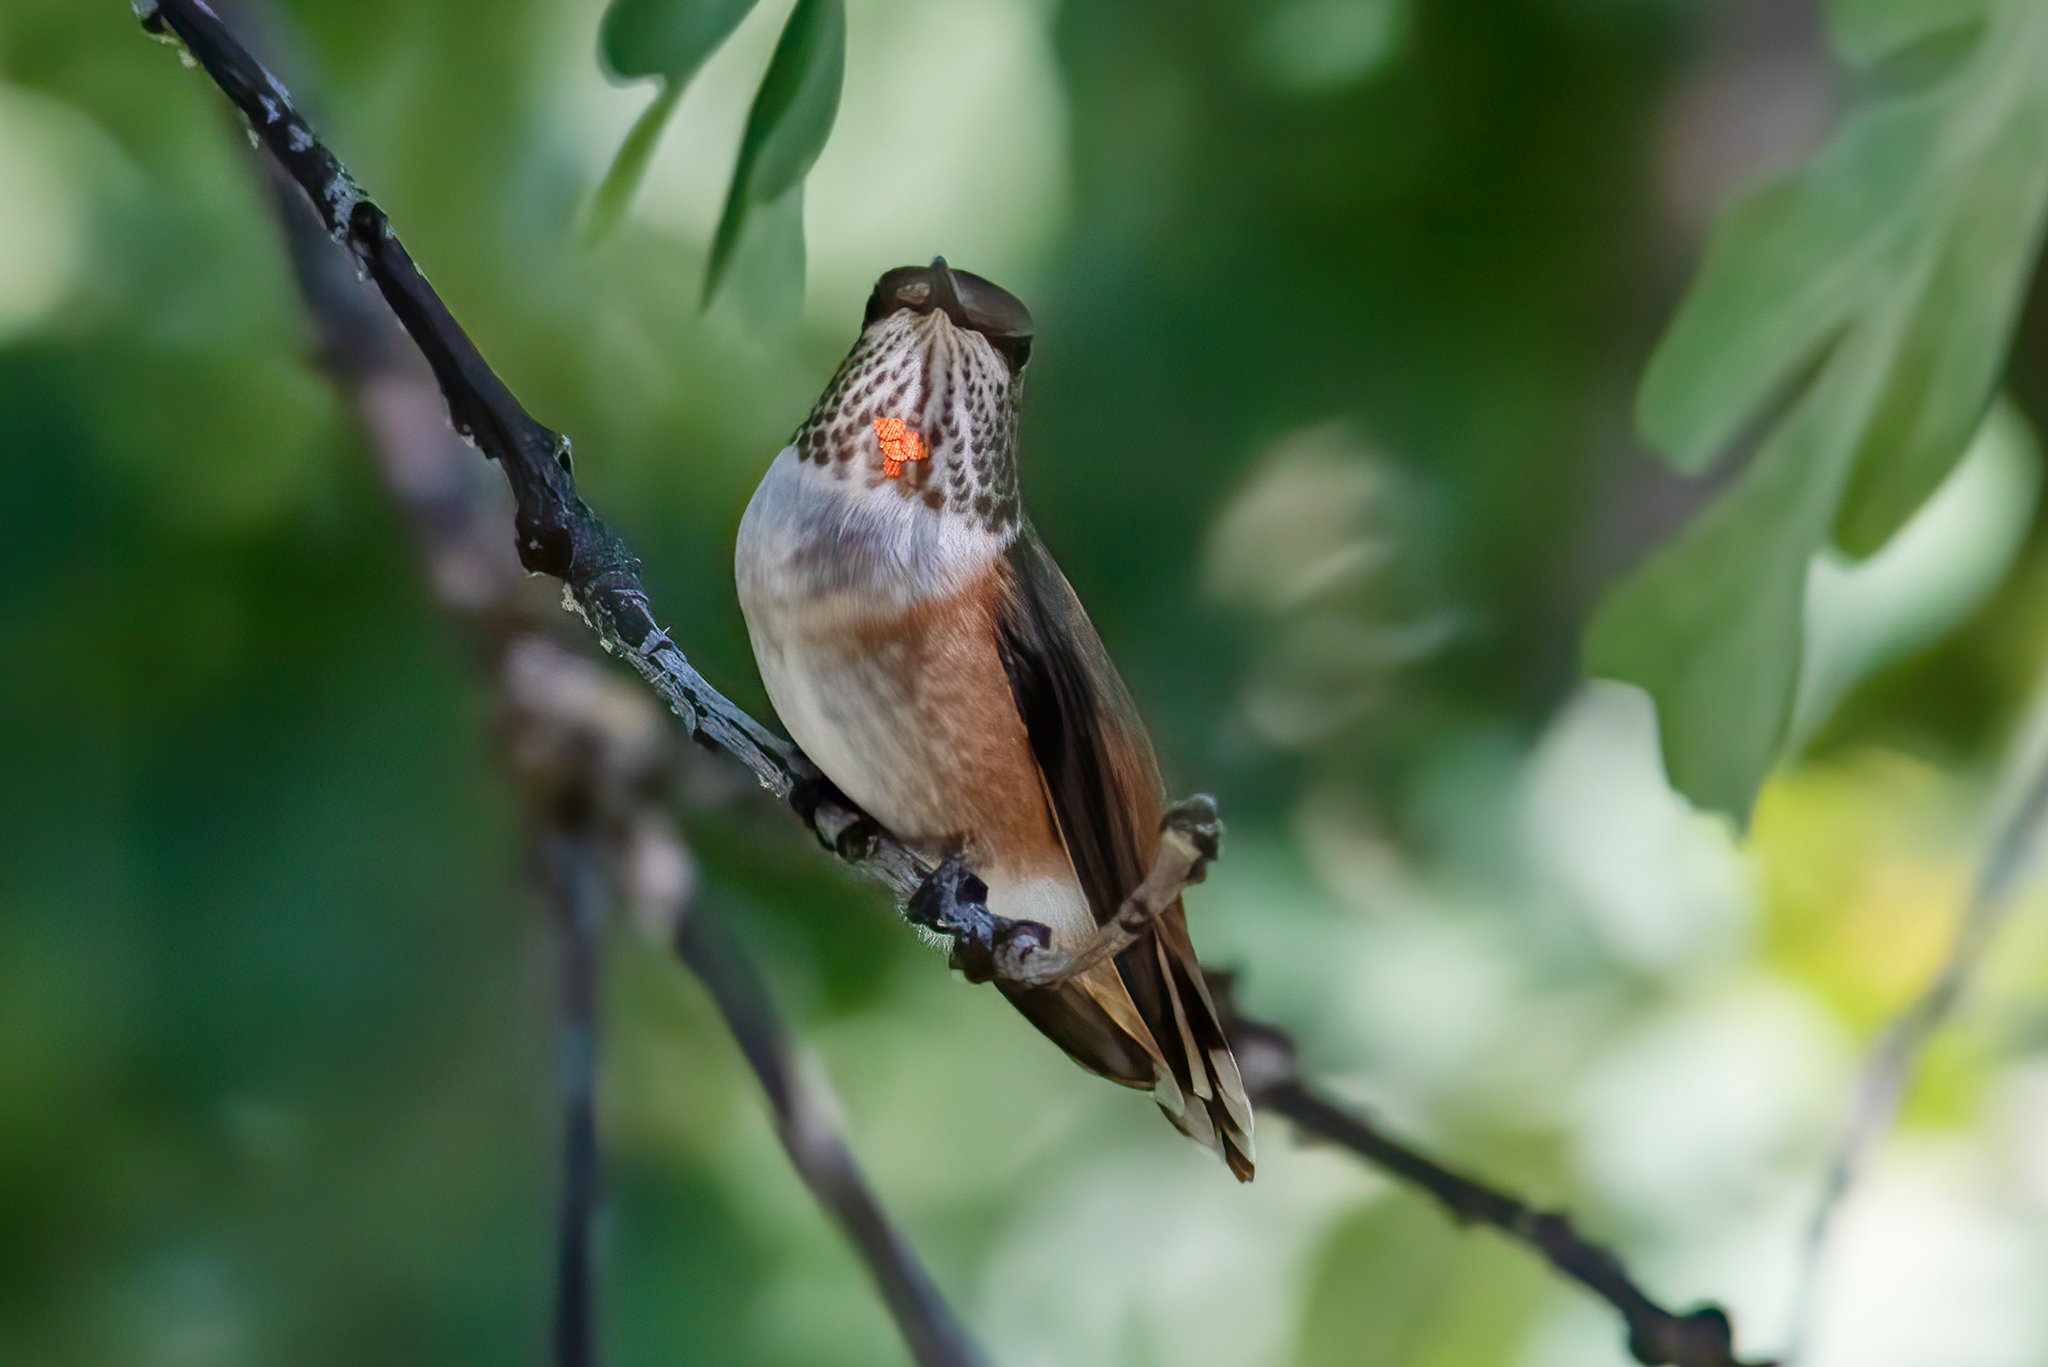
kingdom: Animalia
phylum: Chordata
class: Aves
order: Apodiformes
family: Trochilidae
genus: Selasphorus
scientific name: Selasphorus rufus
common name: Rufous hummingbird
